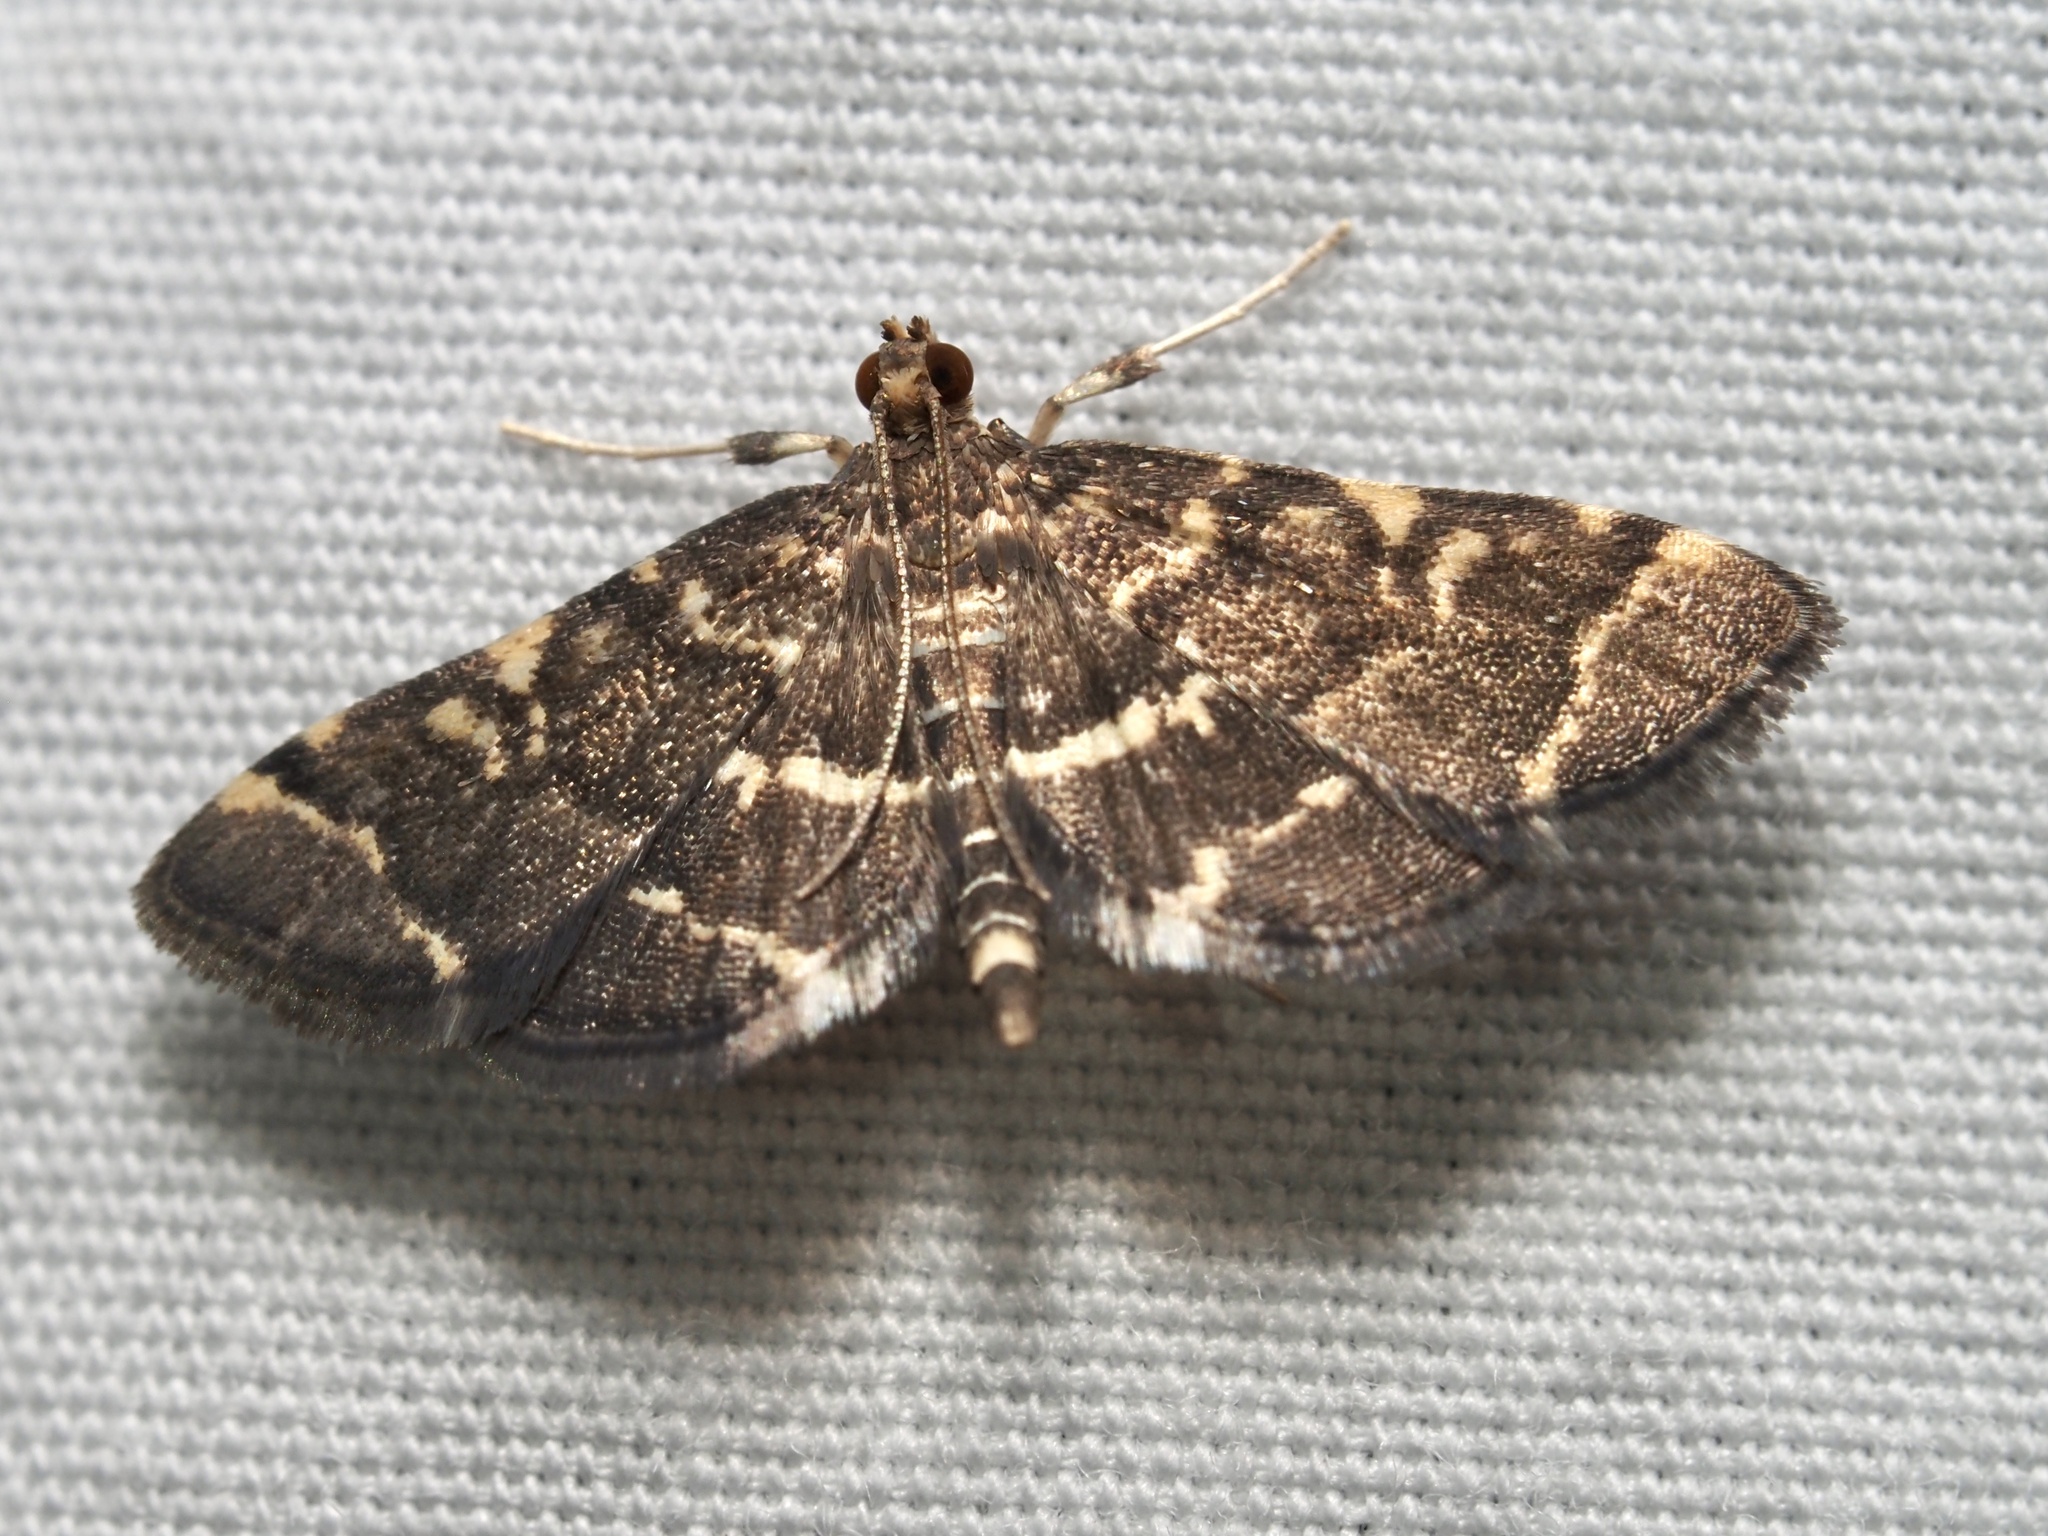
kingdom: Animalia
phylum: Arthropoda
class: Insecta
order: Lepidoptera
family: Crambidae
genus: Anageshna
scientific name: Anageshna primordialis
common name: Yellow-spotted webworm moth
